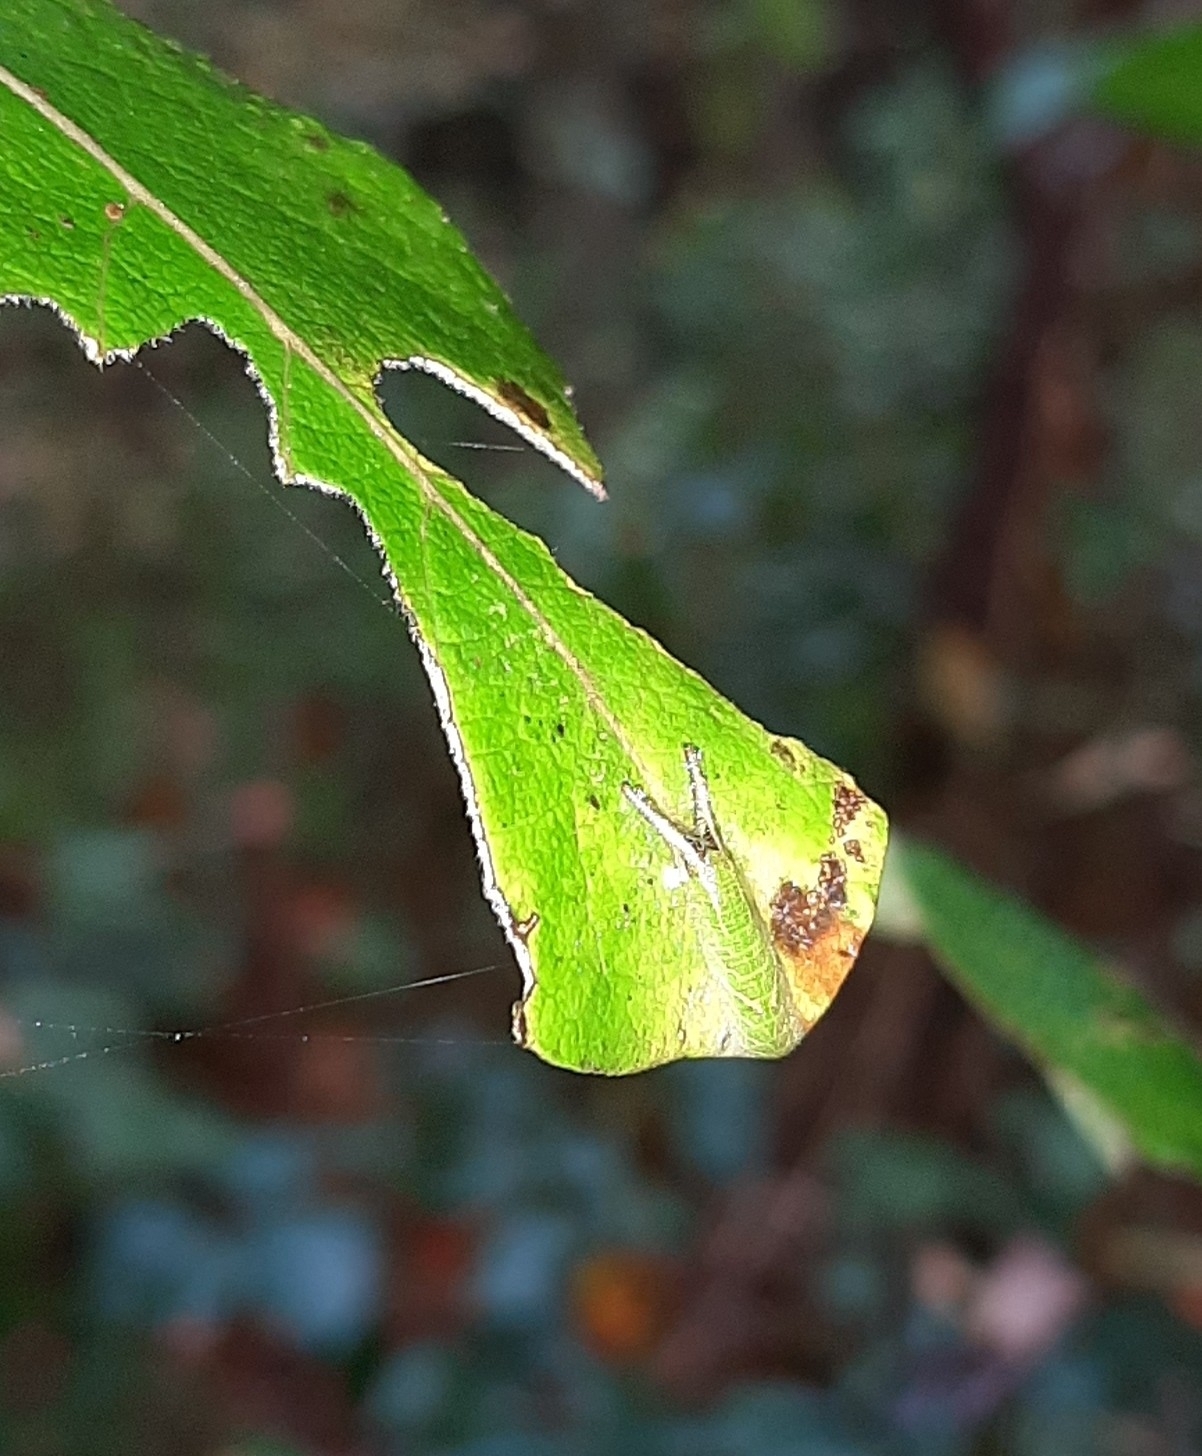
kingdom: Animalia
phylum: Arthropoda
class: Insecta
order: Lepidoptera
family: Nymphalidae
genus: Apatura
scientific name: Apatura iris
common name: Purple emperor
